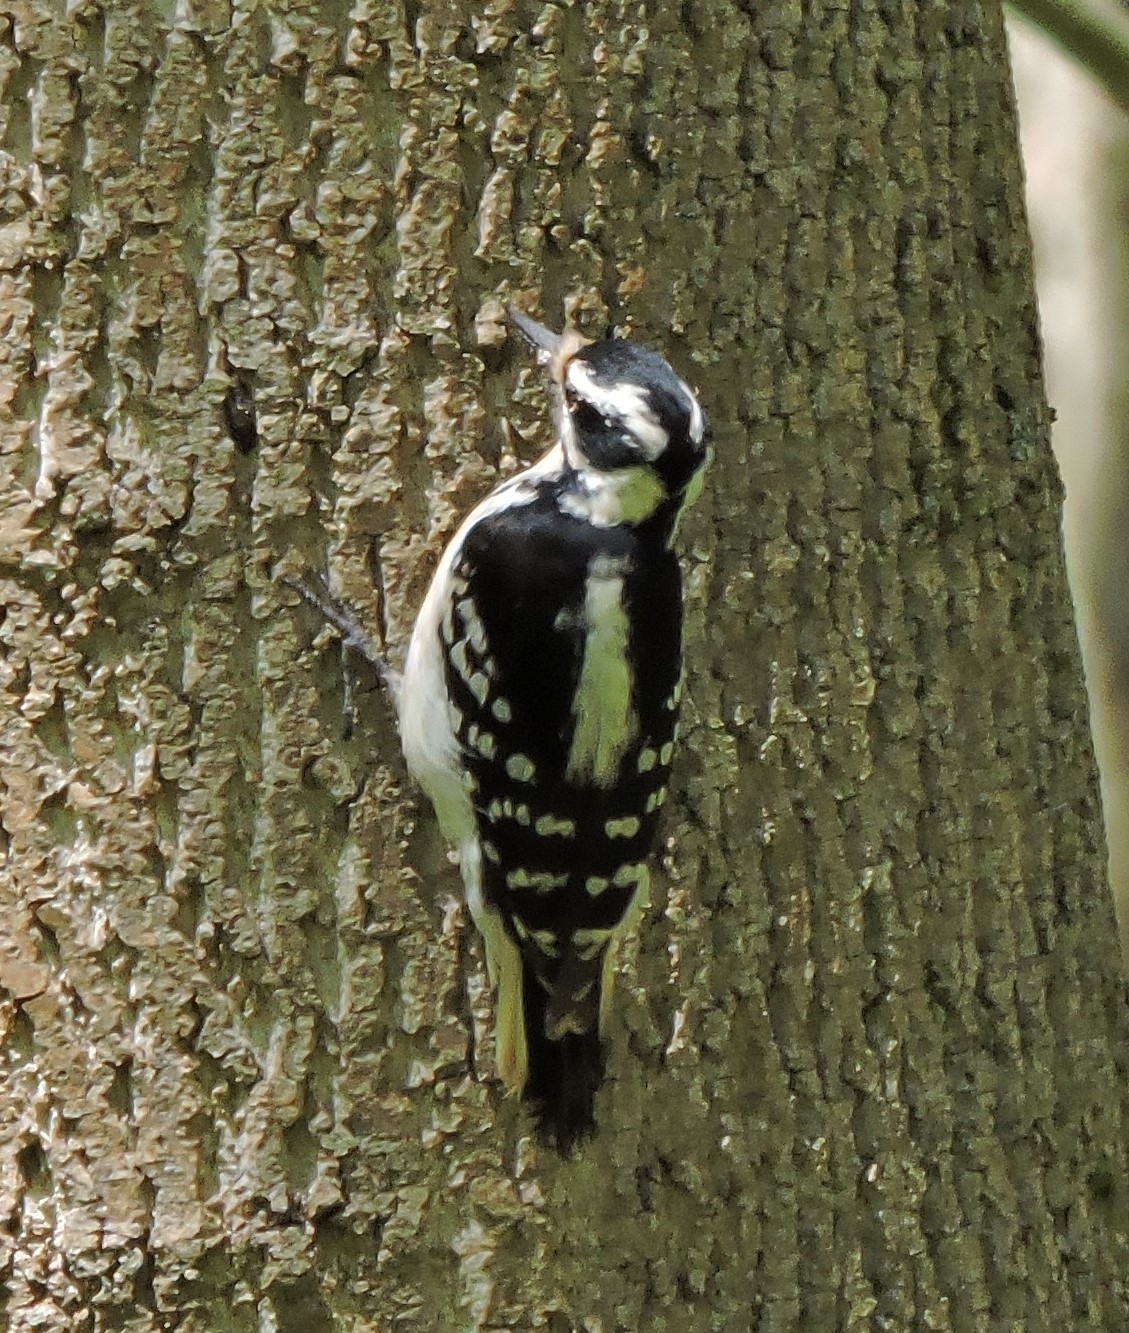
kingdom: Animalia
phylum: Chordata
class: Aves
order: Piciformes
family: Picidae
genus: Leuconotopicus
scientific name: Leuconotopicus villosus
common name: Hairy woodpecker
